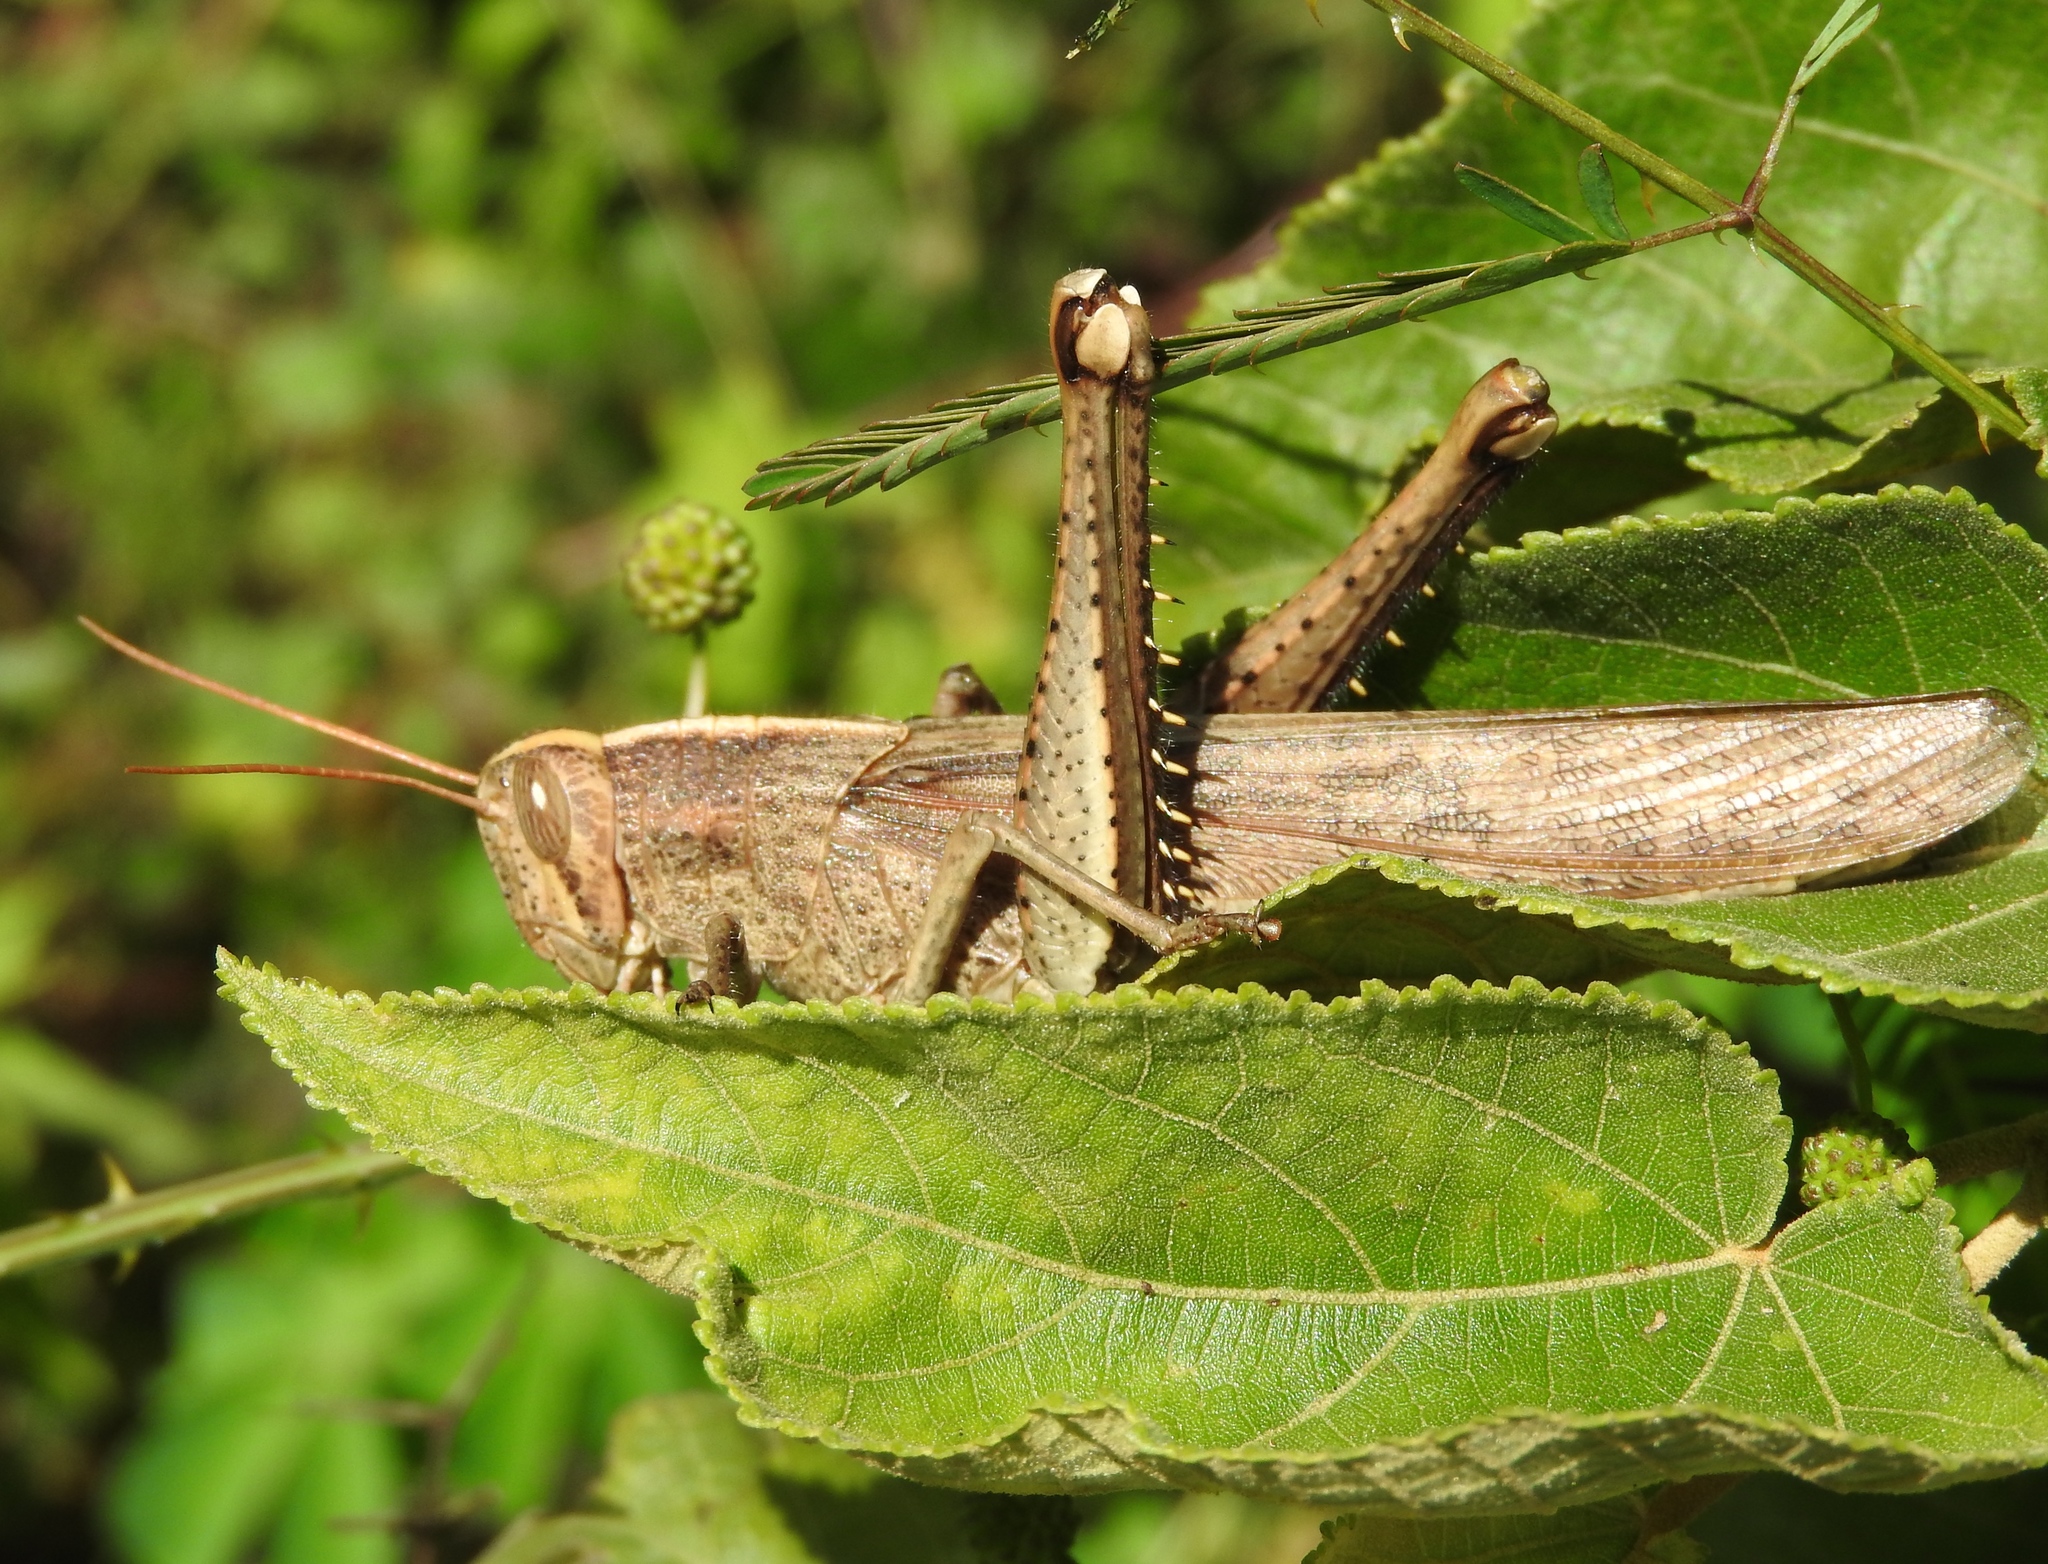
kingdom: Animalia
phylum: Arthropoda
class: Insecta
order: Orthoptera
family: Acrididae
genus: Schistocerca
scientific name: Schistocerca camerata
